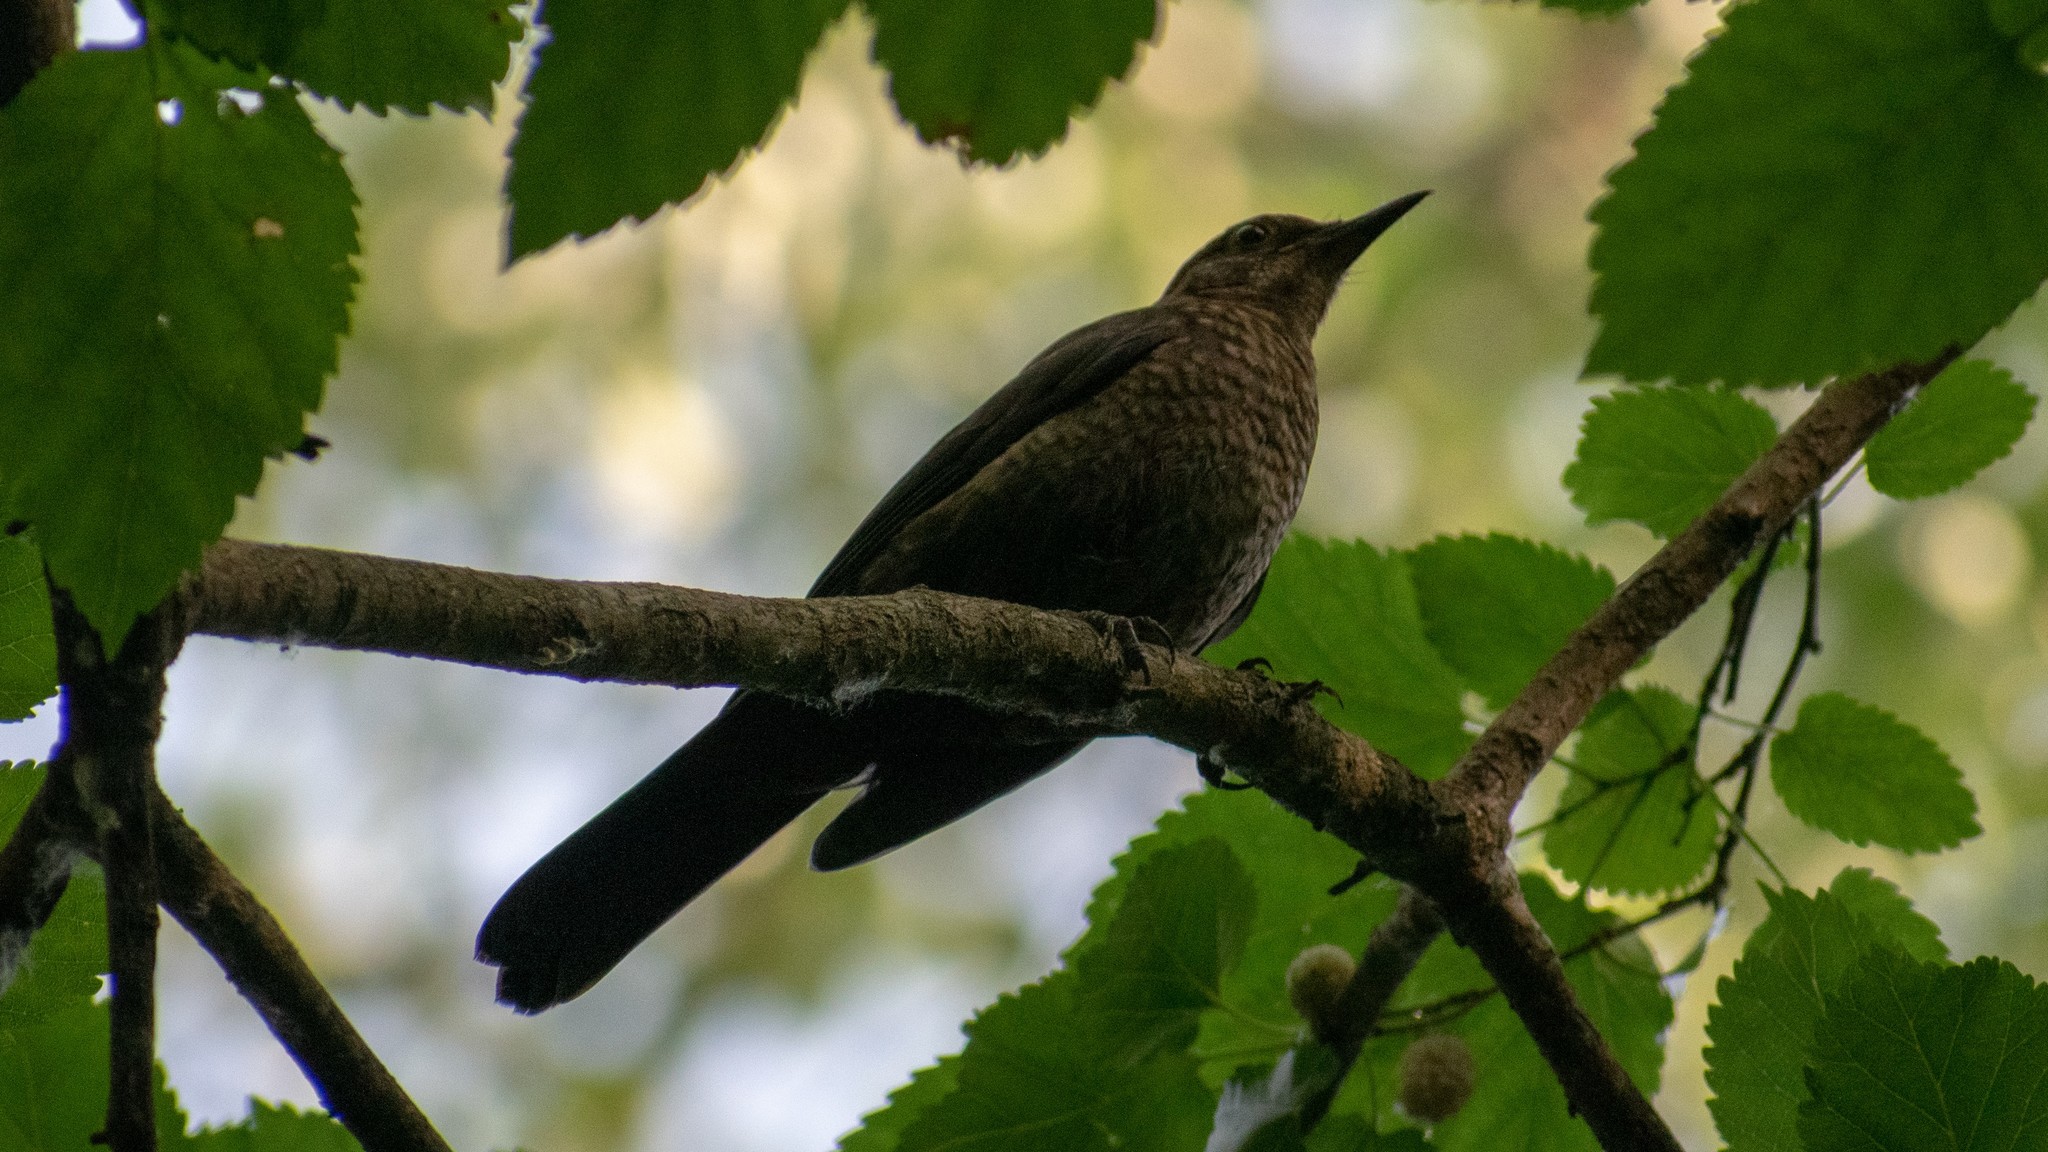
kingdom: Animalia
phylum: Chordata
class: Aves
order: Passeriformes
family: Turdidae
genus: Turdus
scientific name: Turdus merula
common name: Common blackbird
